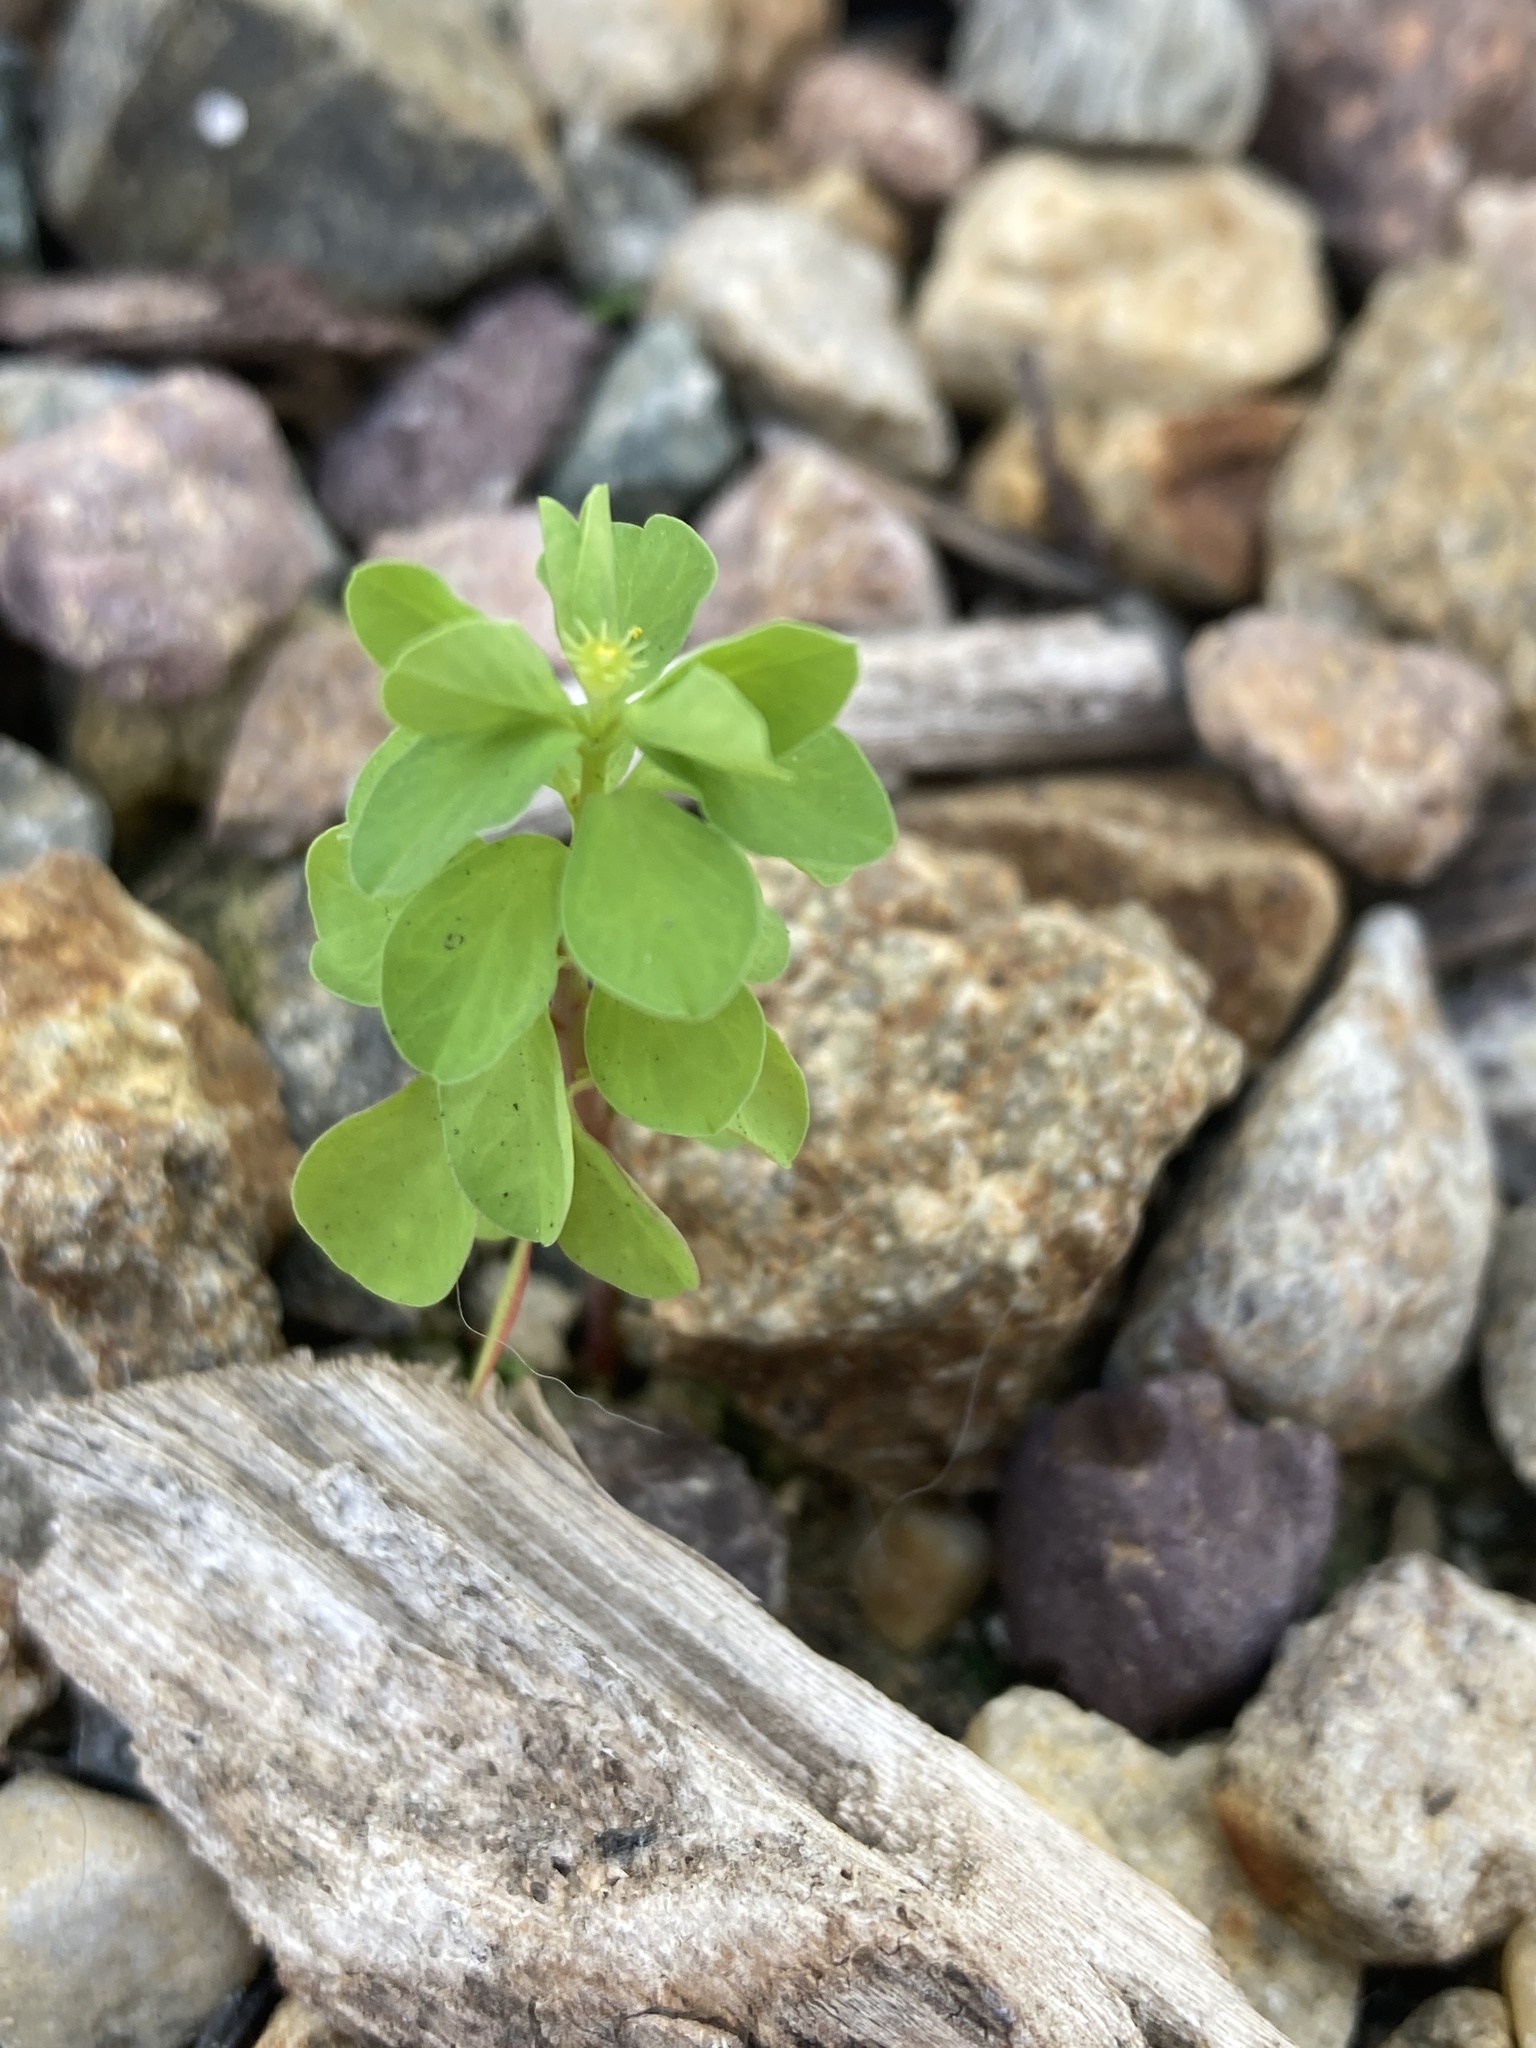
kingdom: Plantae
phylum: Tracheophyta
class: Magnoliopsida
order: Malpighiales
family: Euphorbiaceae
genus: Euphorbia
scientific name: Euphorbia peplus
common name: Petty spurge
